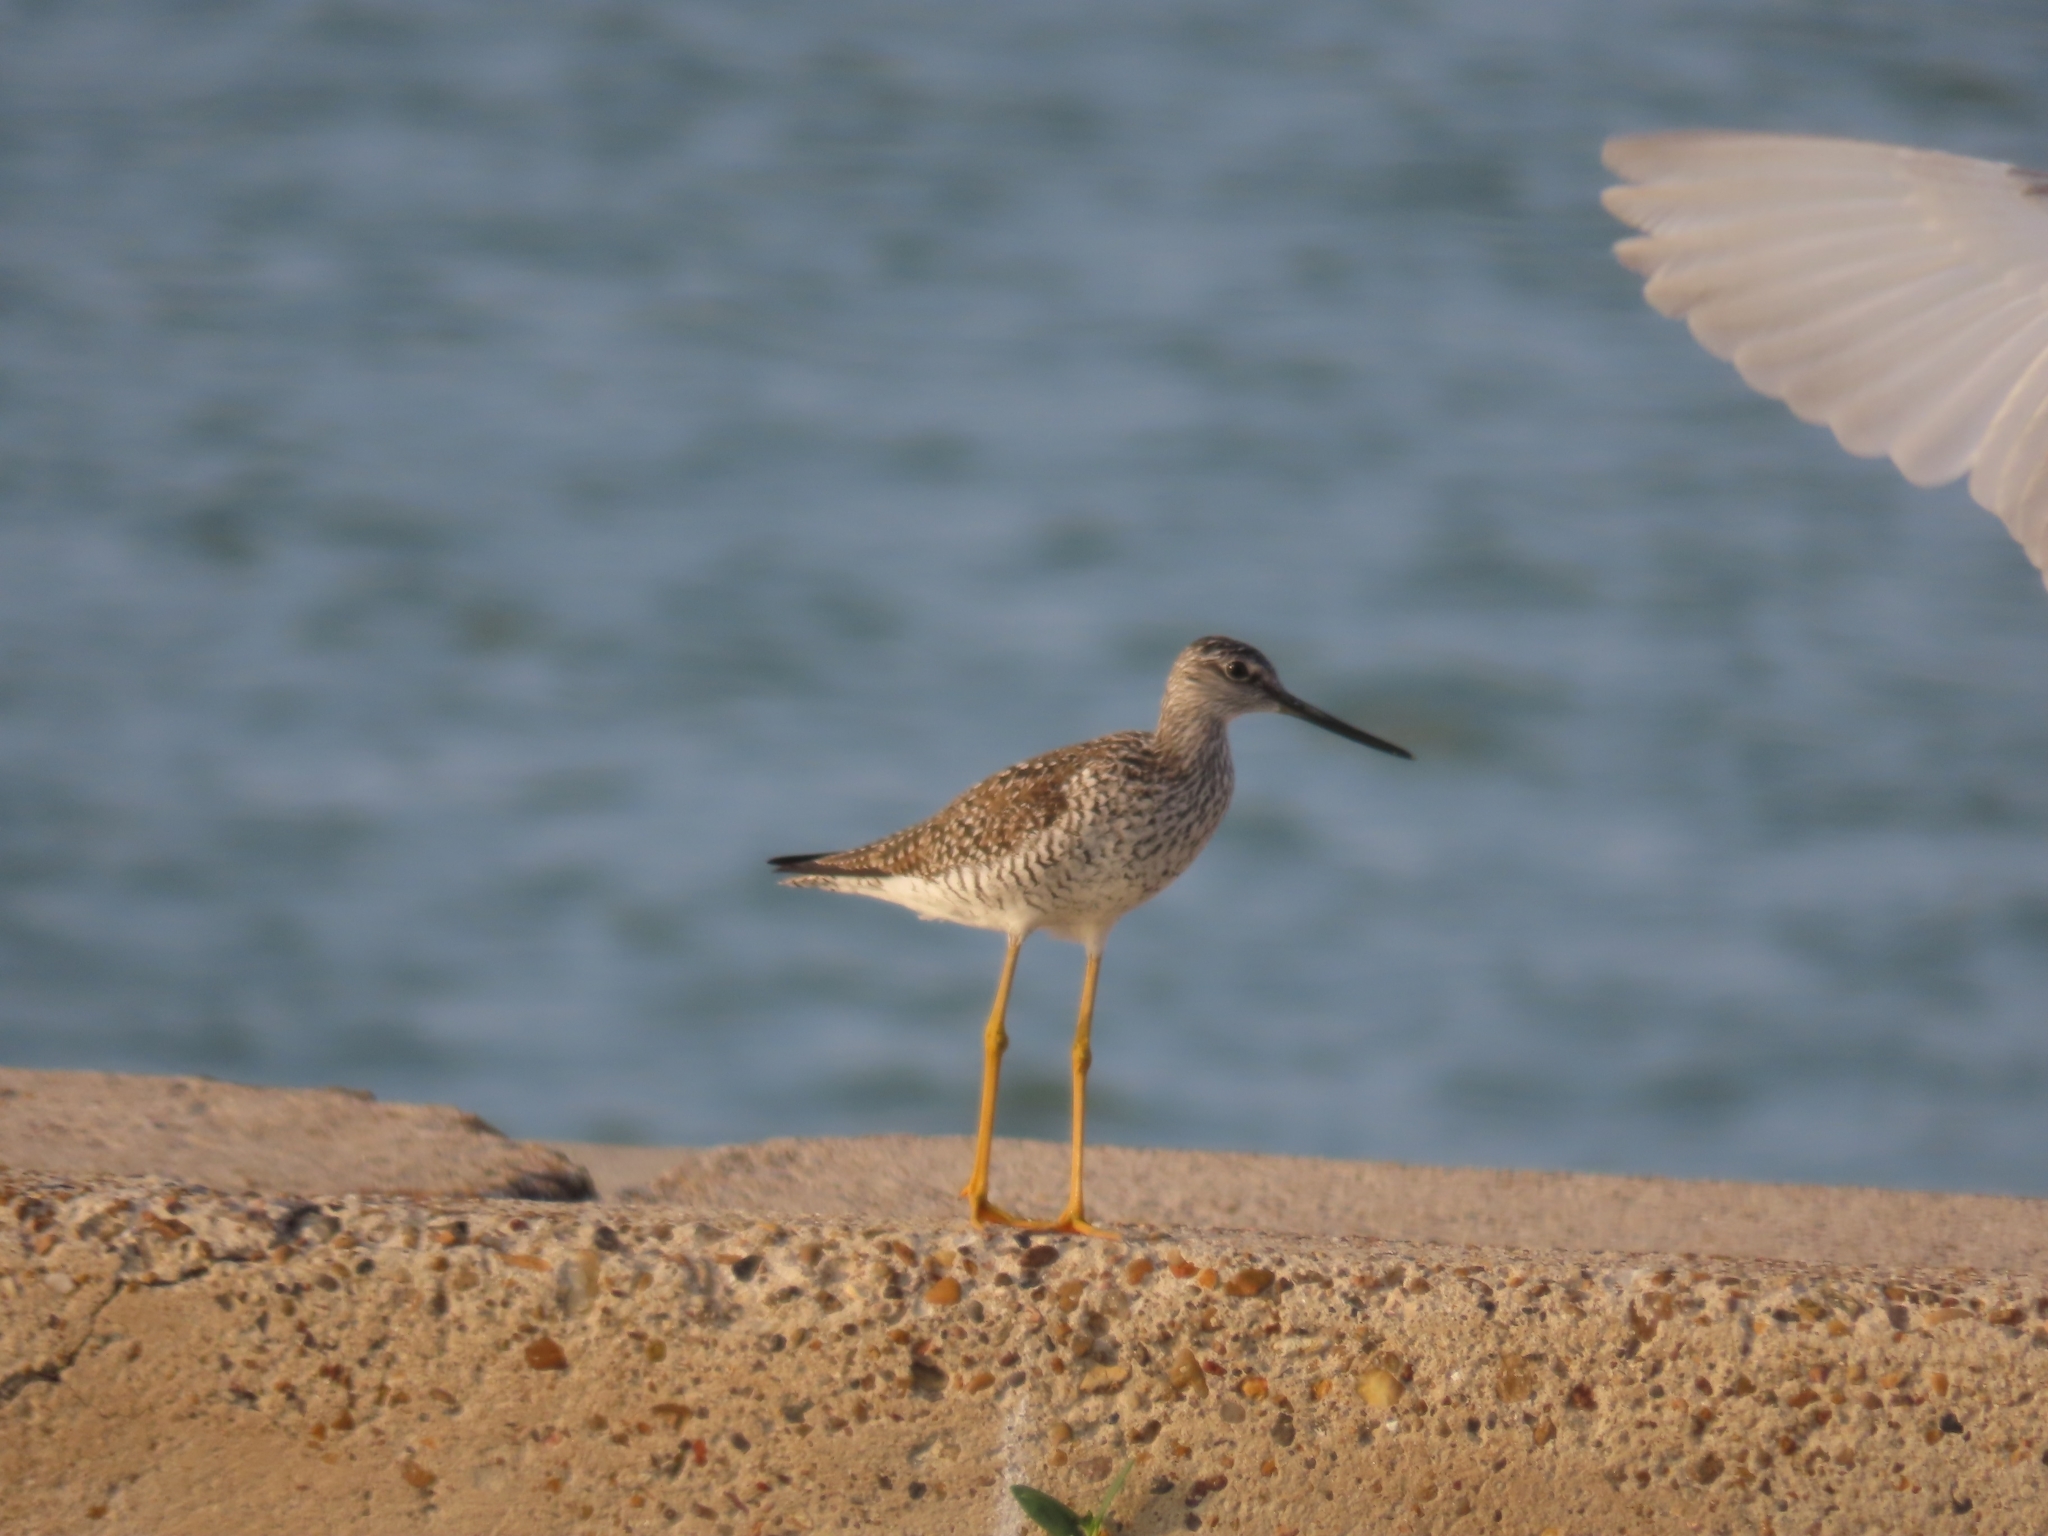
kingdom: Animalia
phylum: Chordata
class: Aves
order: Charadriiformes
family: Scolopacidae
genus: Tringa
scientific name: Tringa melanoleuca
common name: Greater yellowlegs
